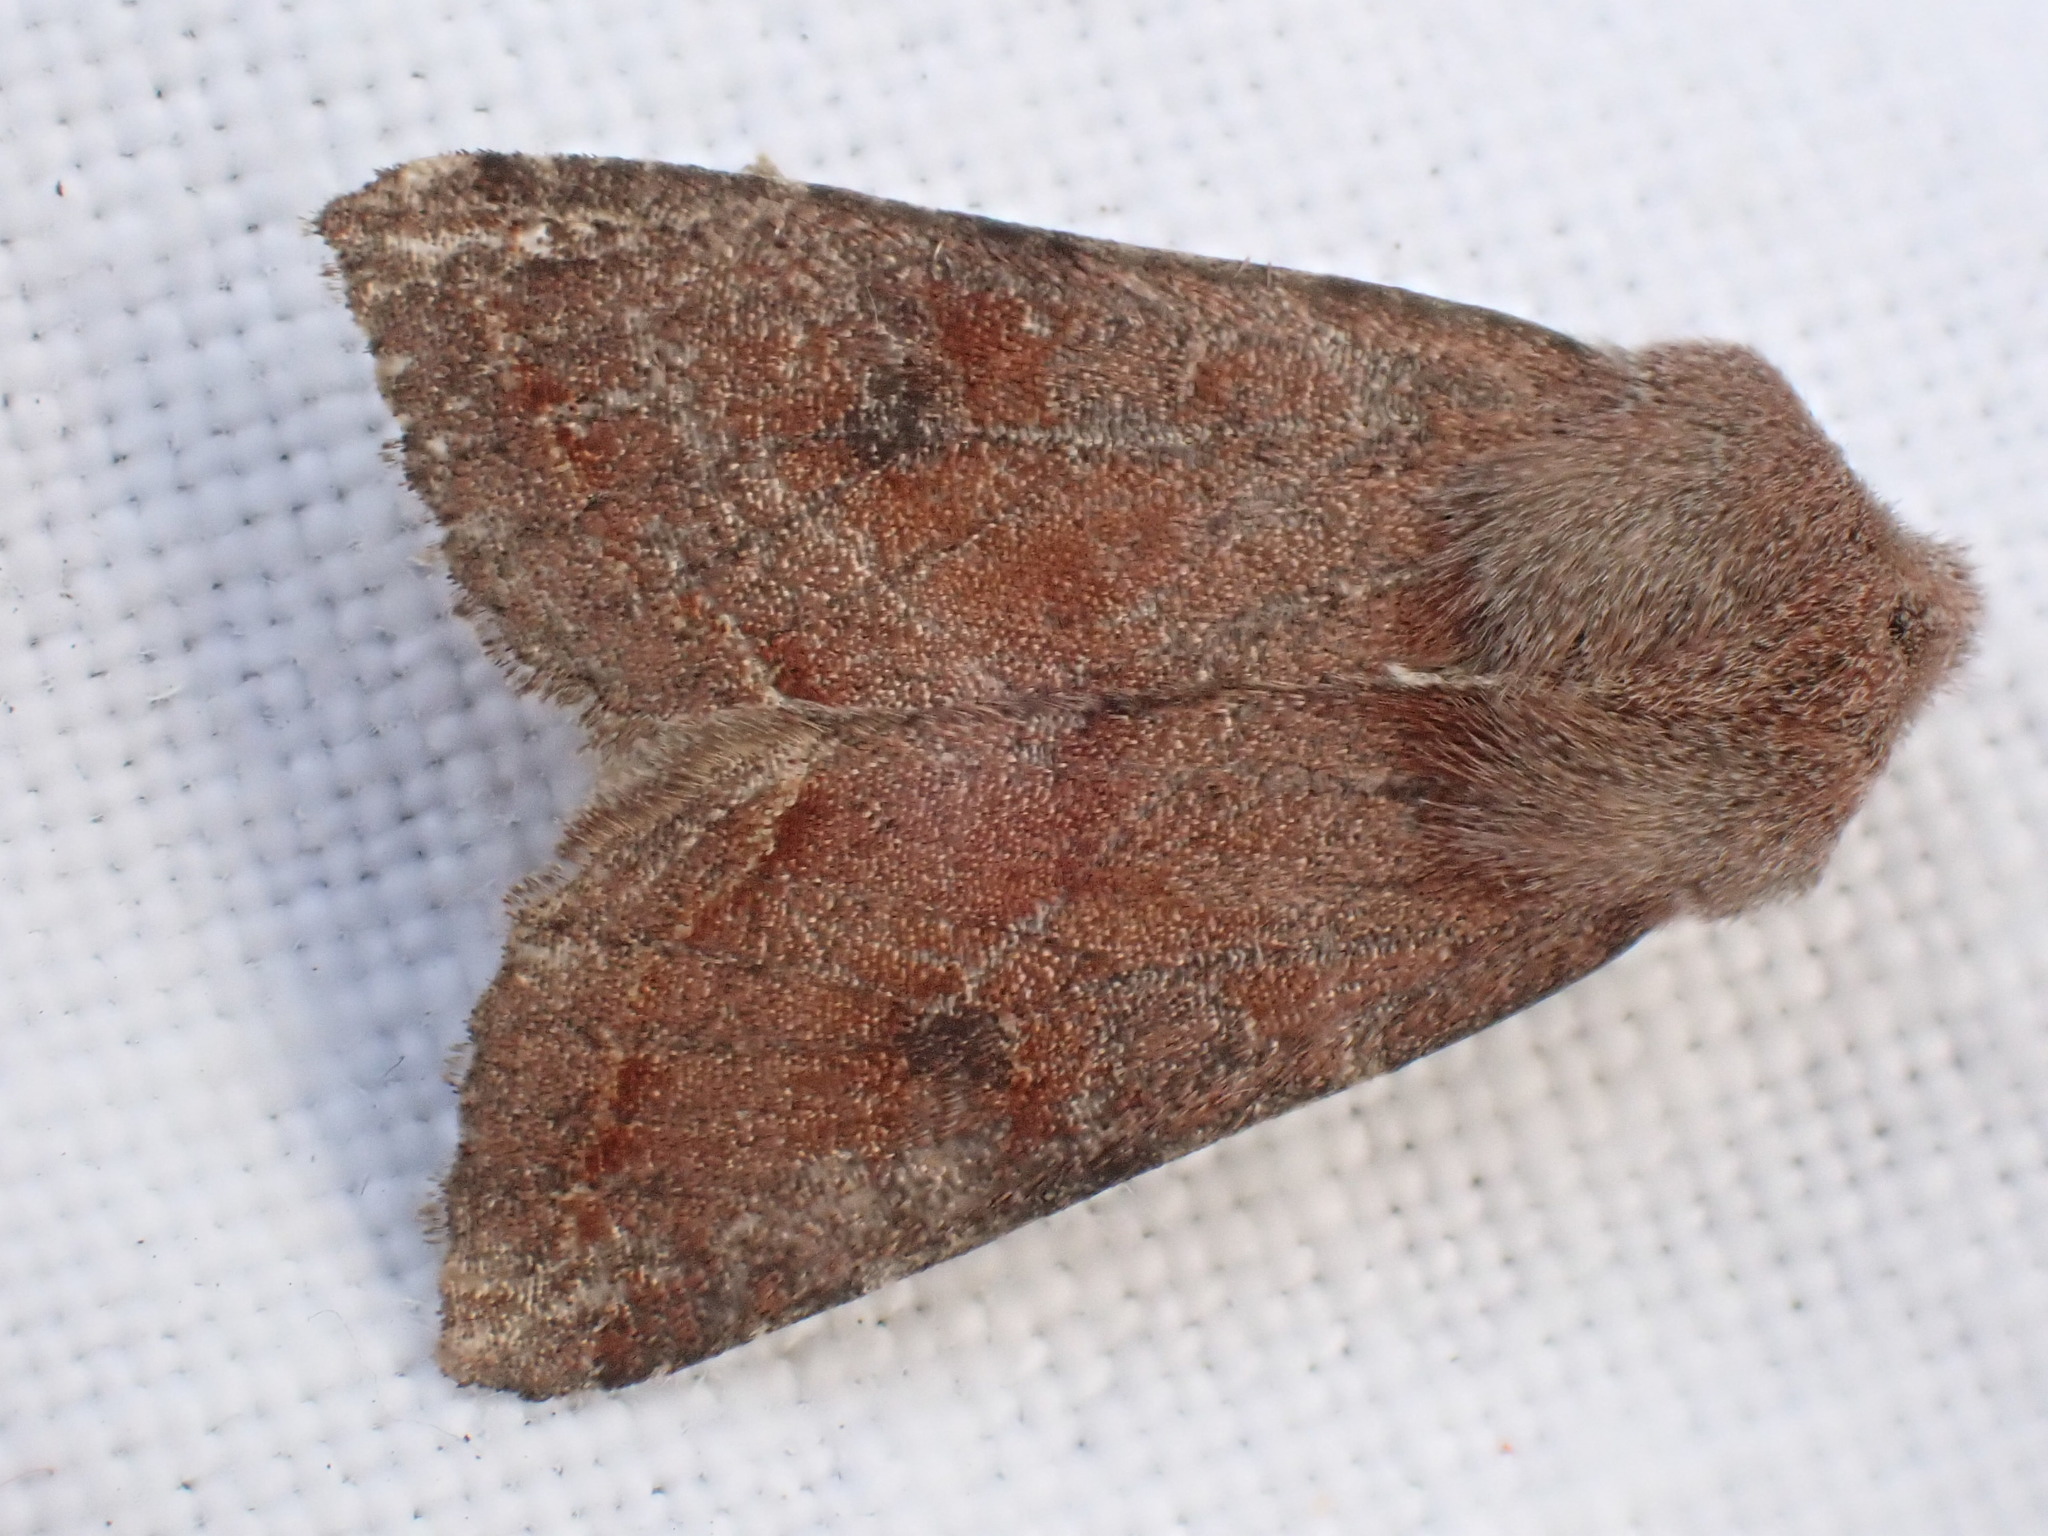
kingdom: Animalia
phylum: Arthropoda
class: Insecta
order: Lepidoptera
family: Noctuidae
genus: Orthosia
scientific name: Orthosia incerta
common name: Clouded drab
